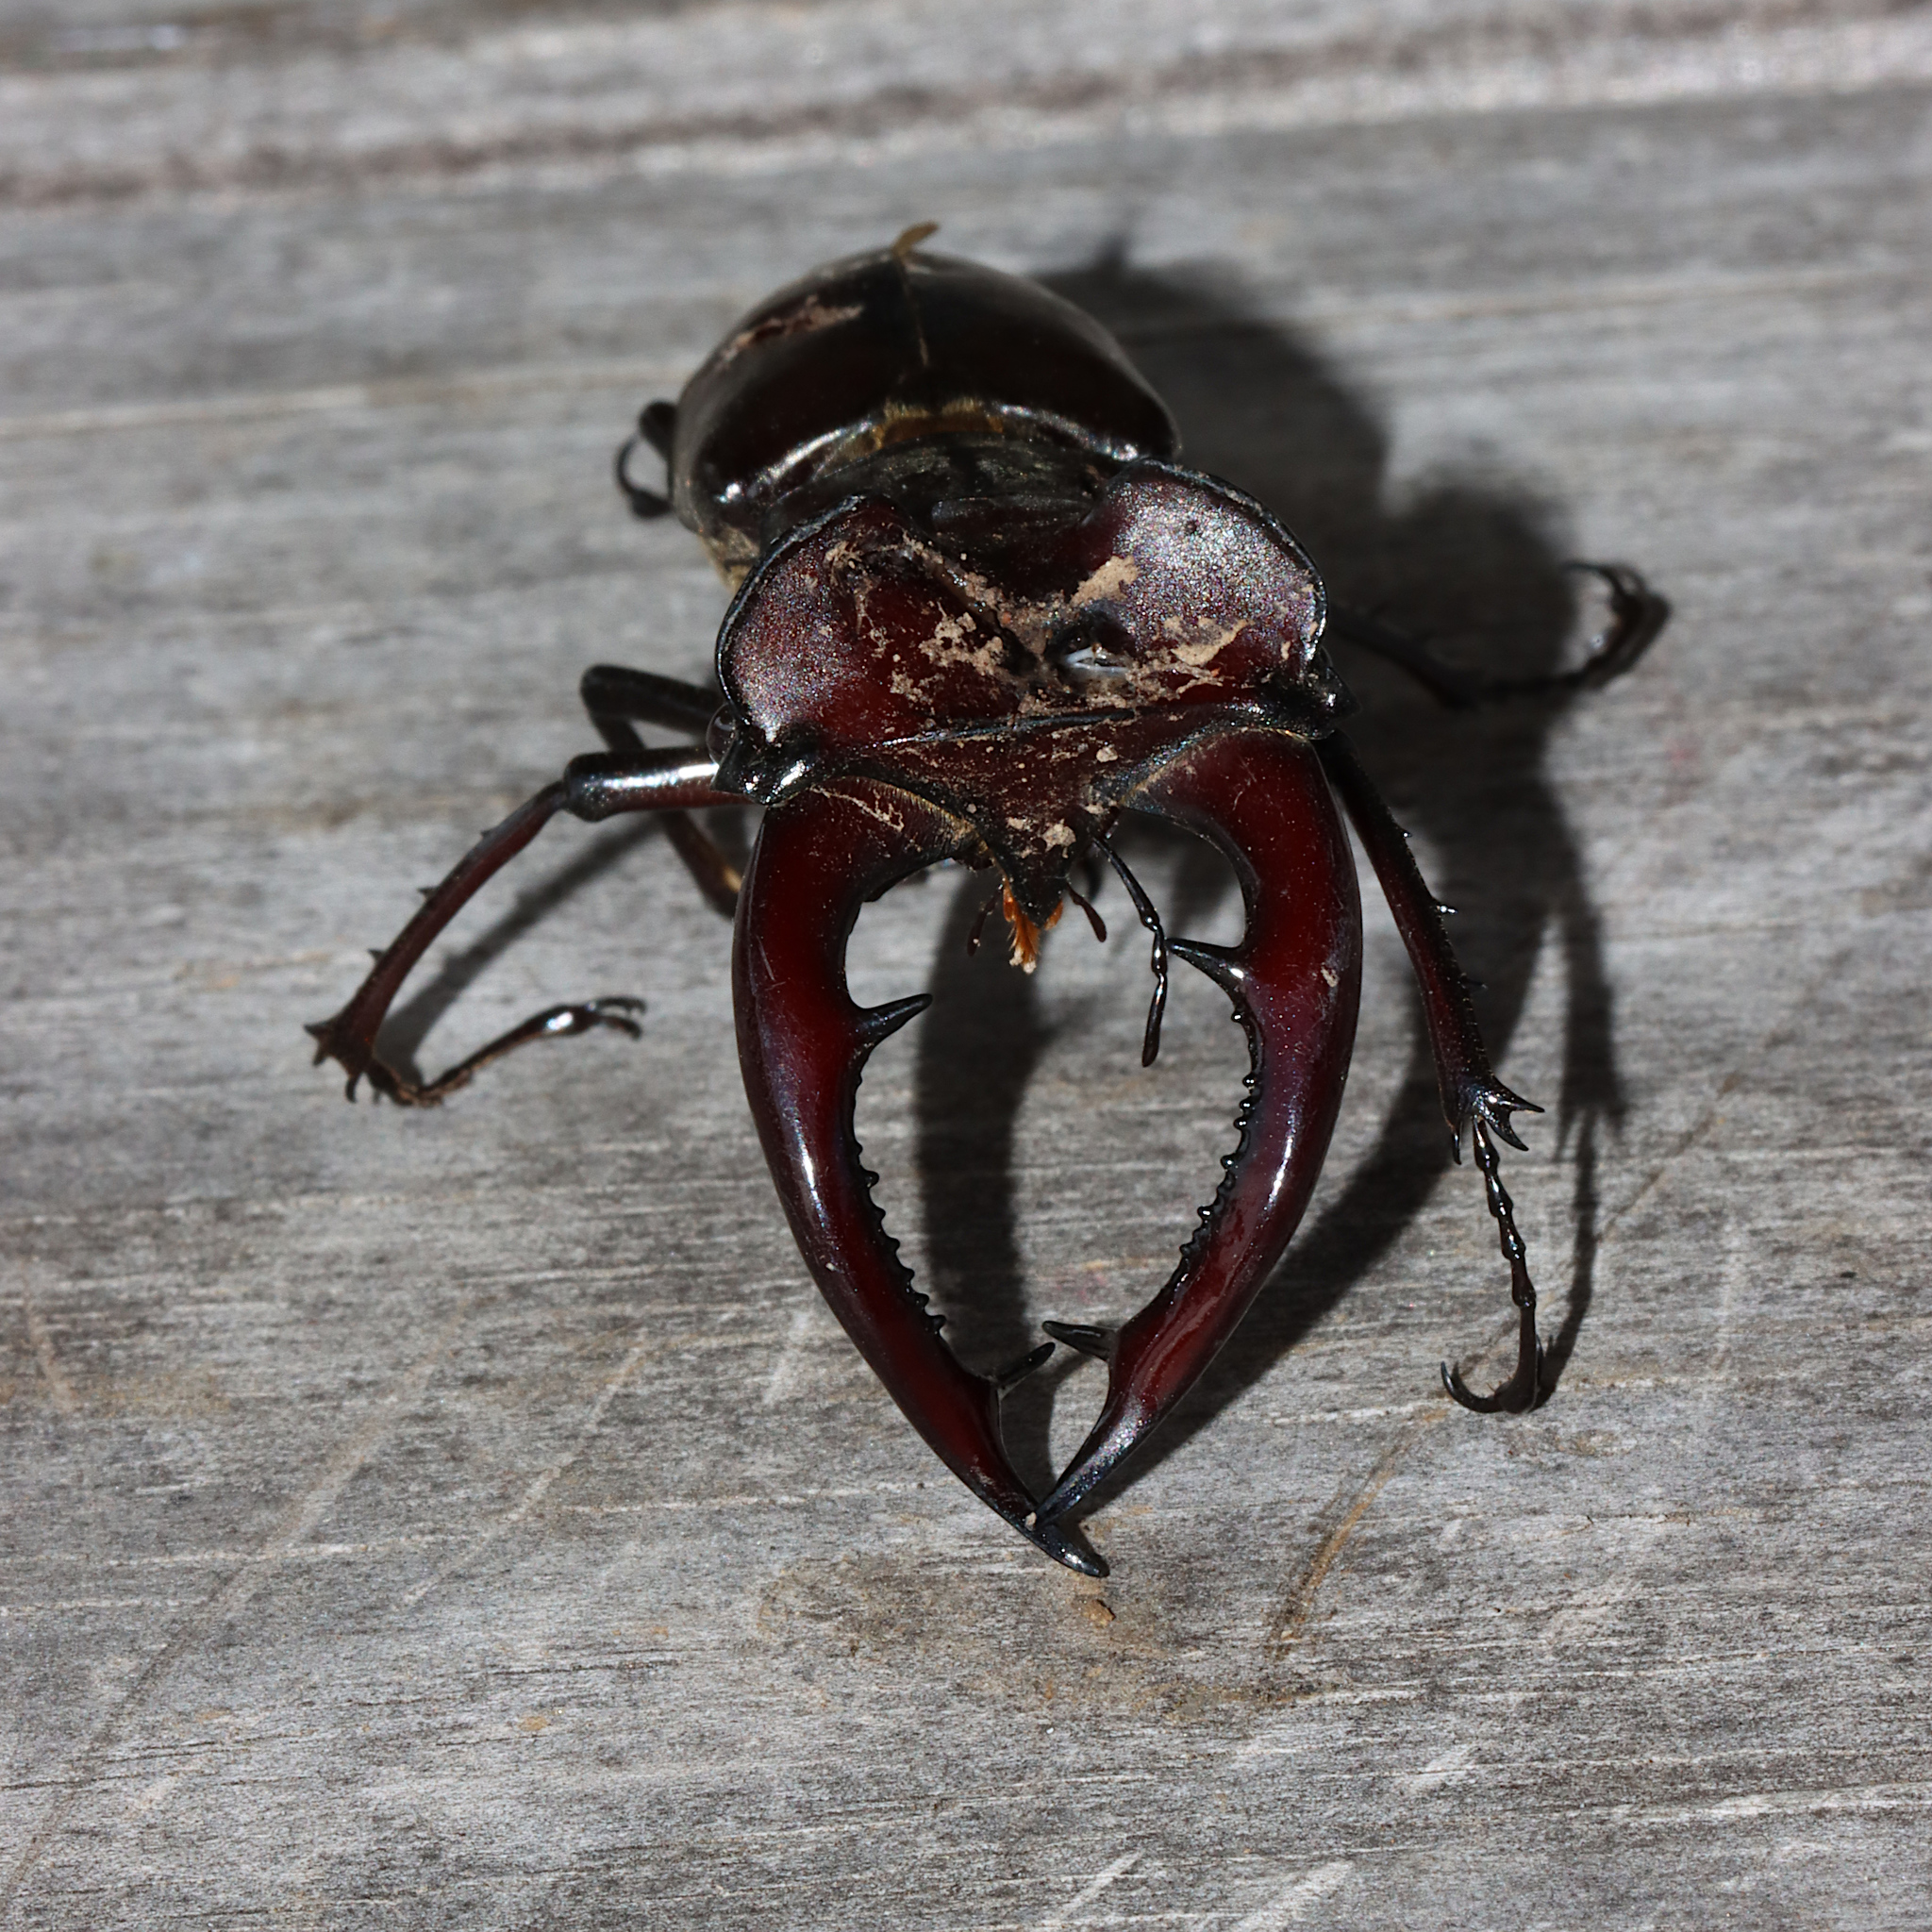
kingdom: Animalia
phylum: Arthropoda
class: Insecta
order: Coleoptera
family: Lucanidae
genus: Lucanus
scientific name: Lucanus elaphus
